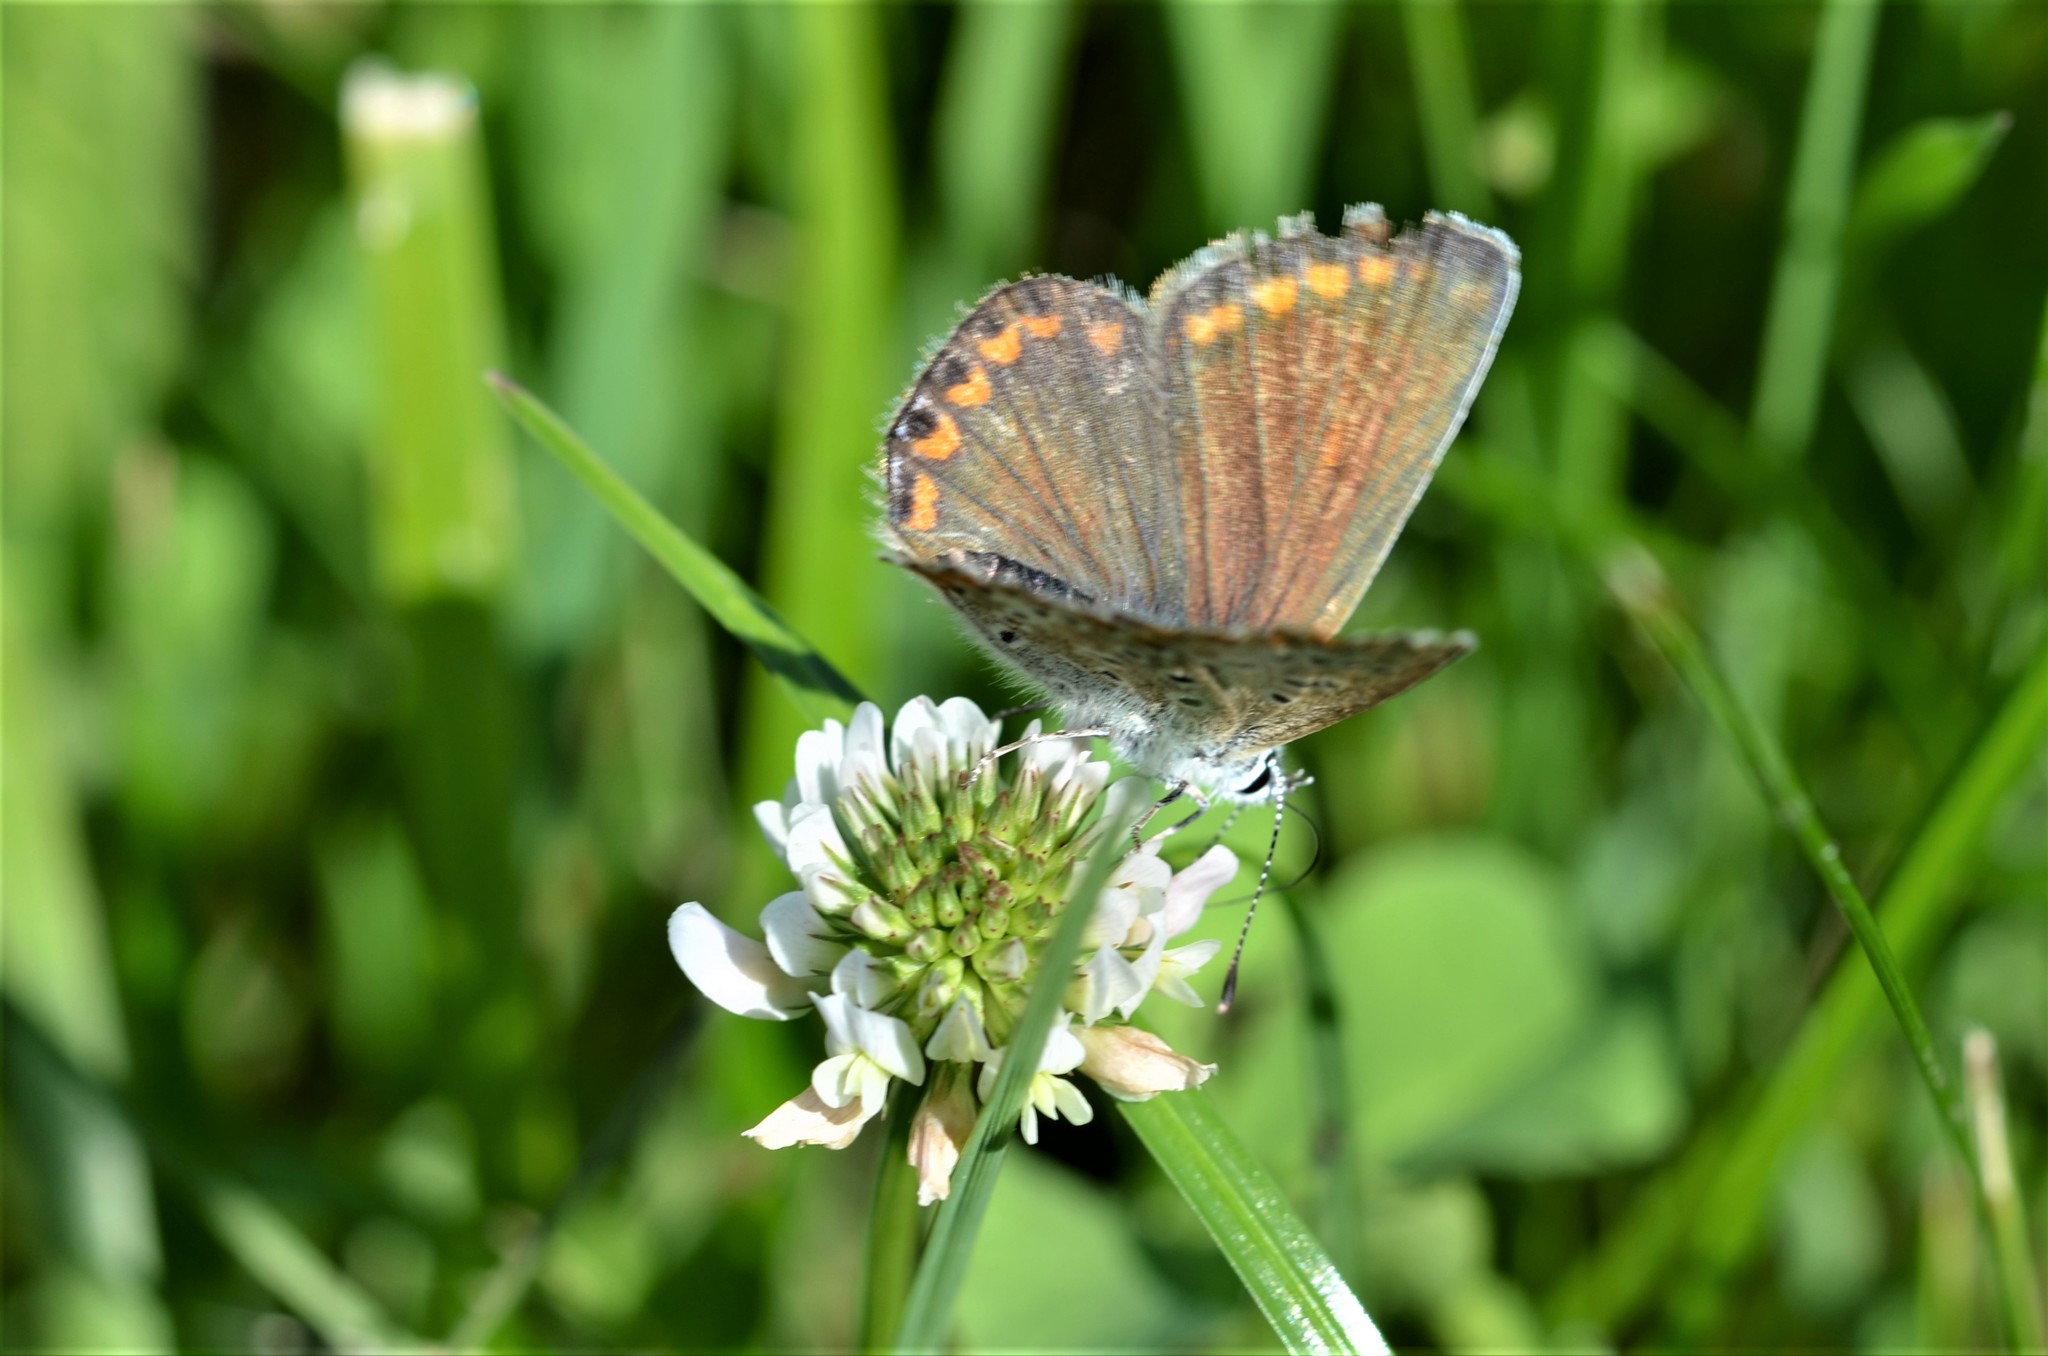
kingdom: Animalia
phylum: Arthropoda
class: Insecta
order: Lepidoptera
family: Lycaenidae
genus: Polyommatus
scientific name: Polyommatus icarus
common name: Common blue
